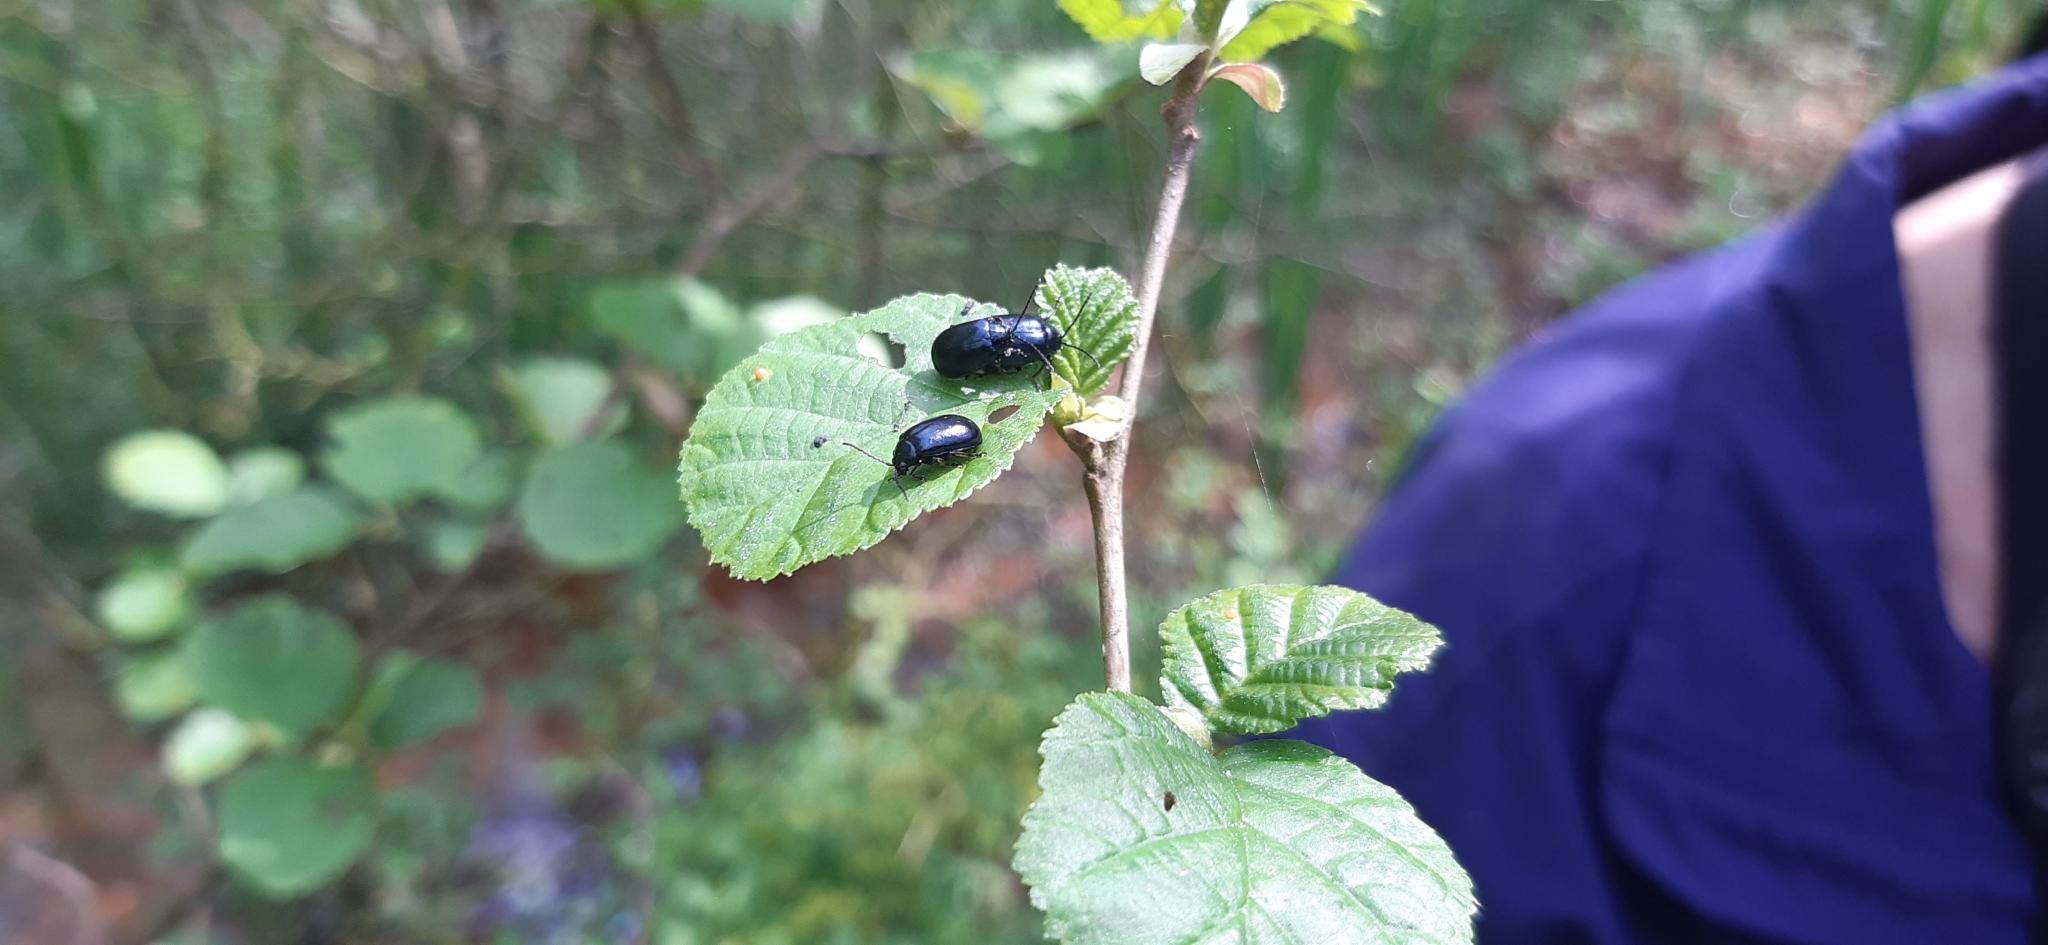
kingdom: Animalia
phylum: Arthropoda
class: Insecta
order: Coleoptera
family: Chrysomelidae
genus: Agelastica
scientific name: Agelastica alni
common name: Alder leaf beetle
